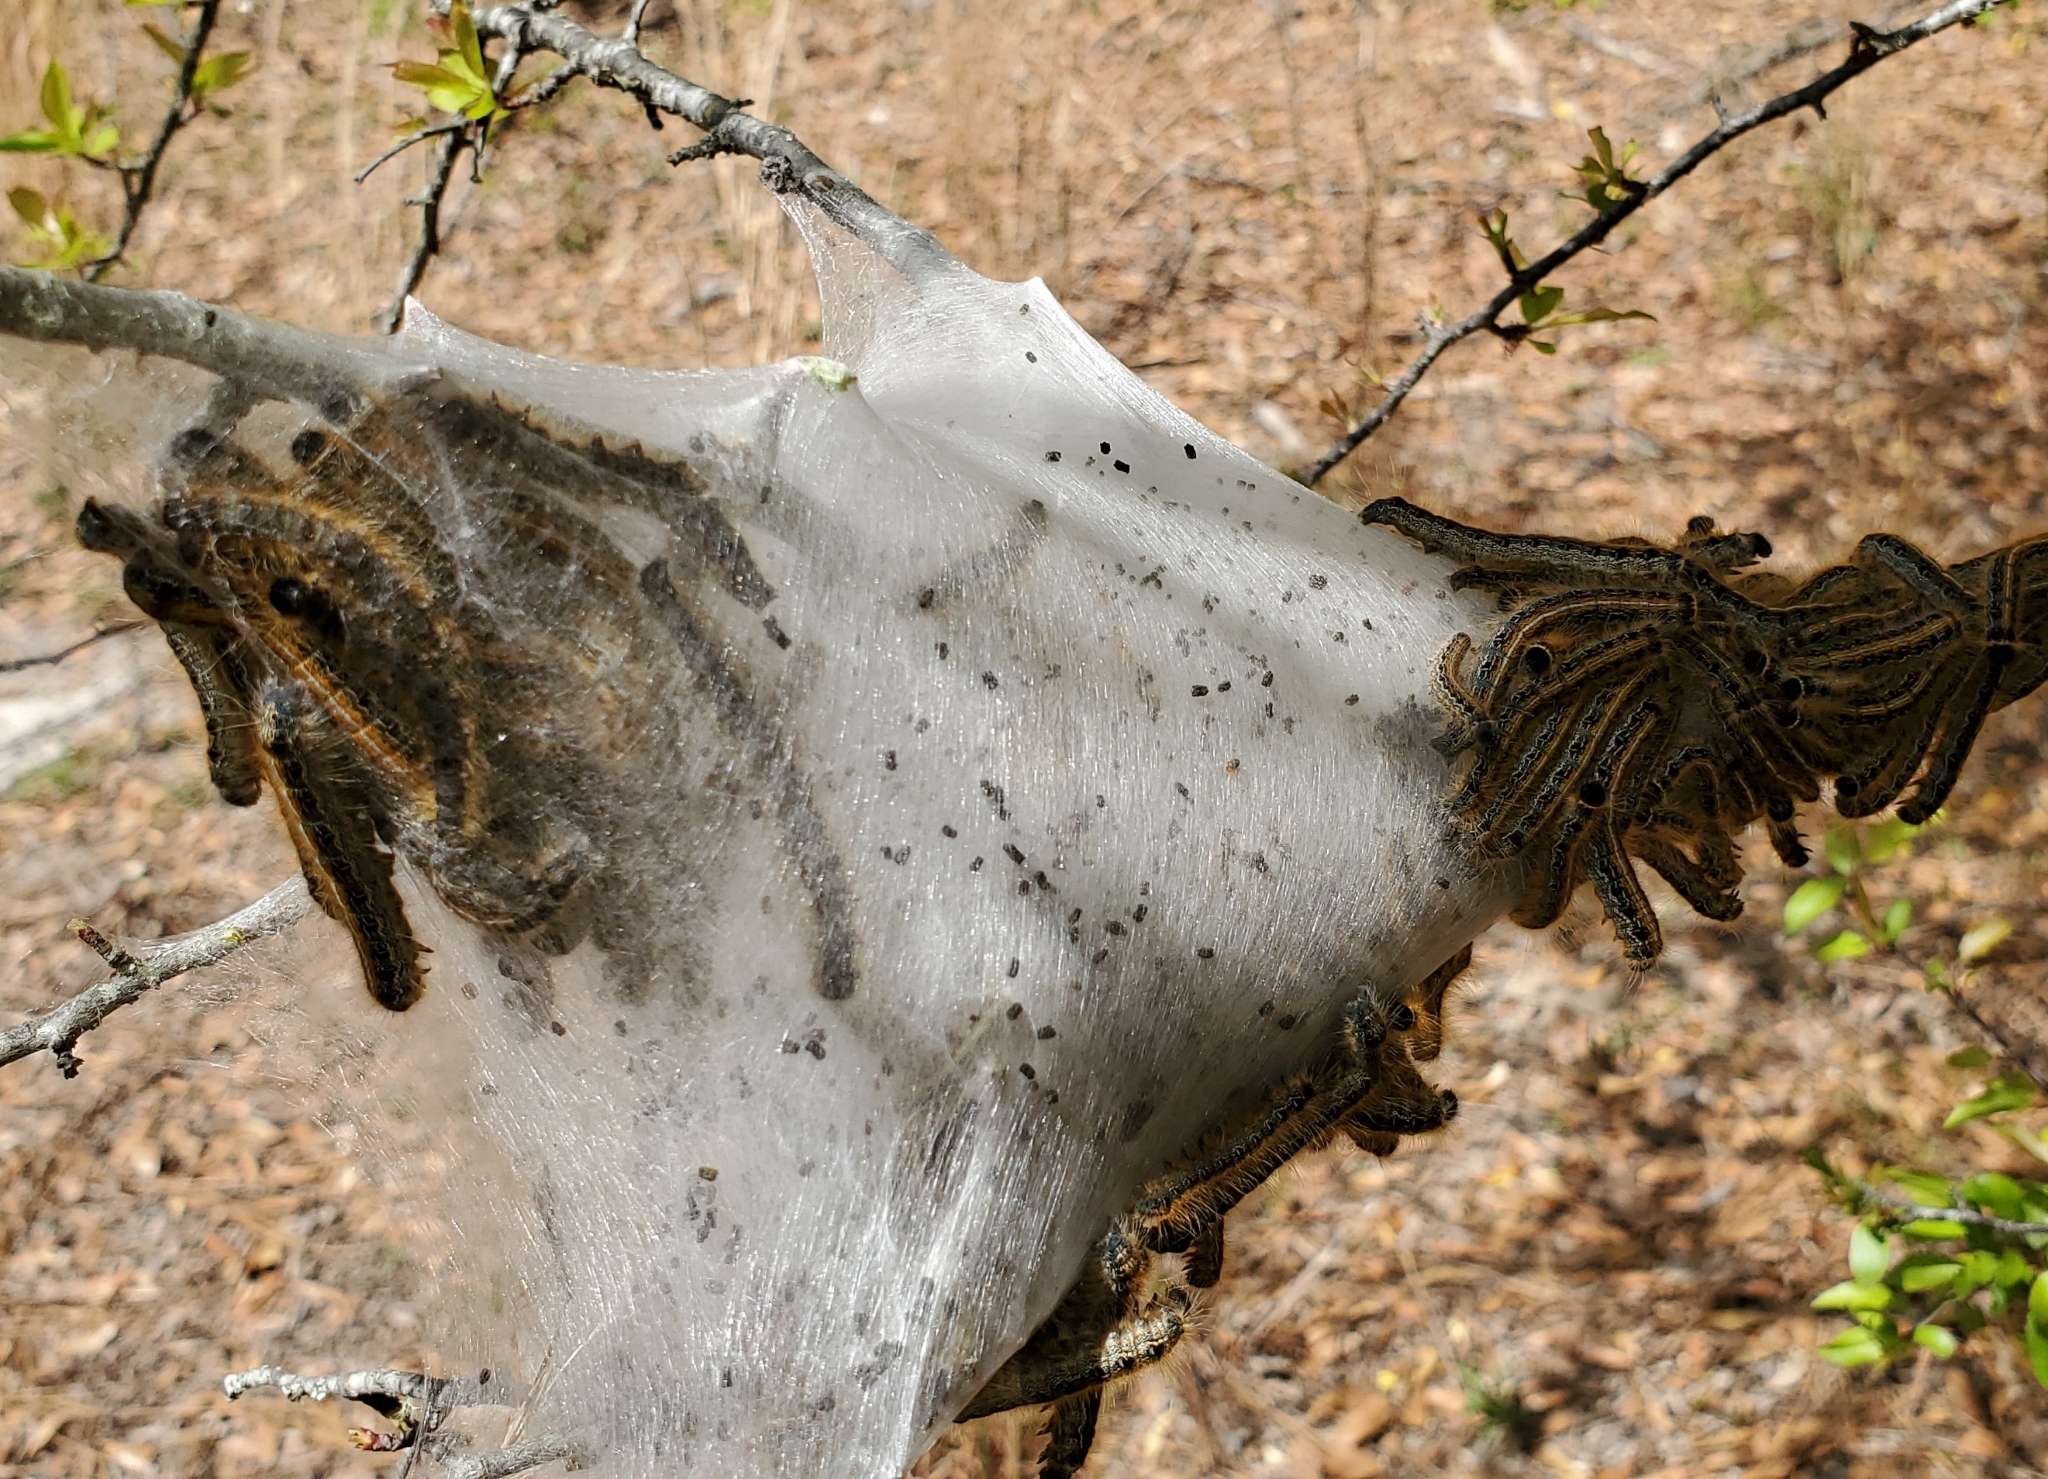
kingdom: Animalia
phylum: Arthropoda
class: Insecta
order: Lepidoptera
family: Lasiocampidae
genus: Malacosoma
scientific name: Malacosoma americana
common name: Eastern tent caterpillar moth
